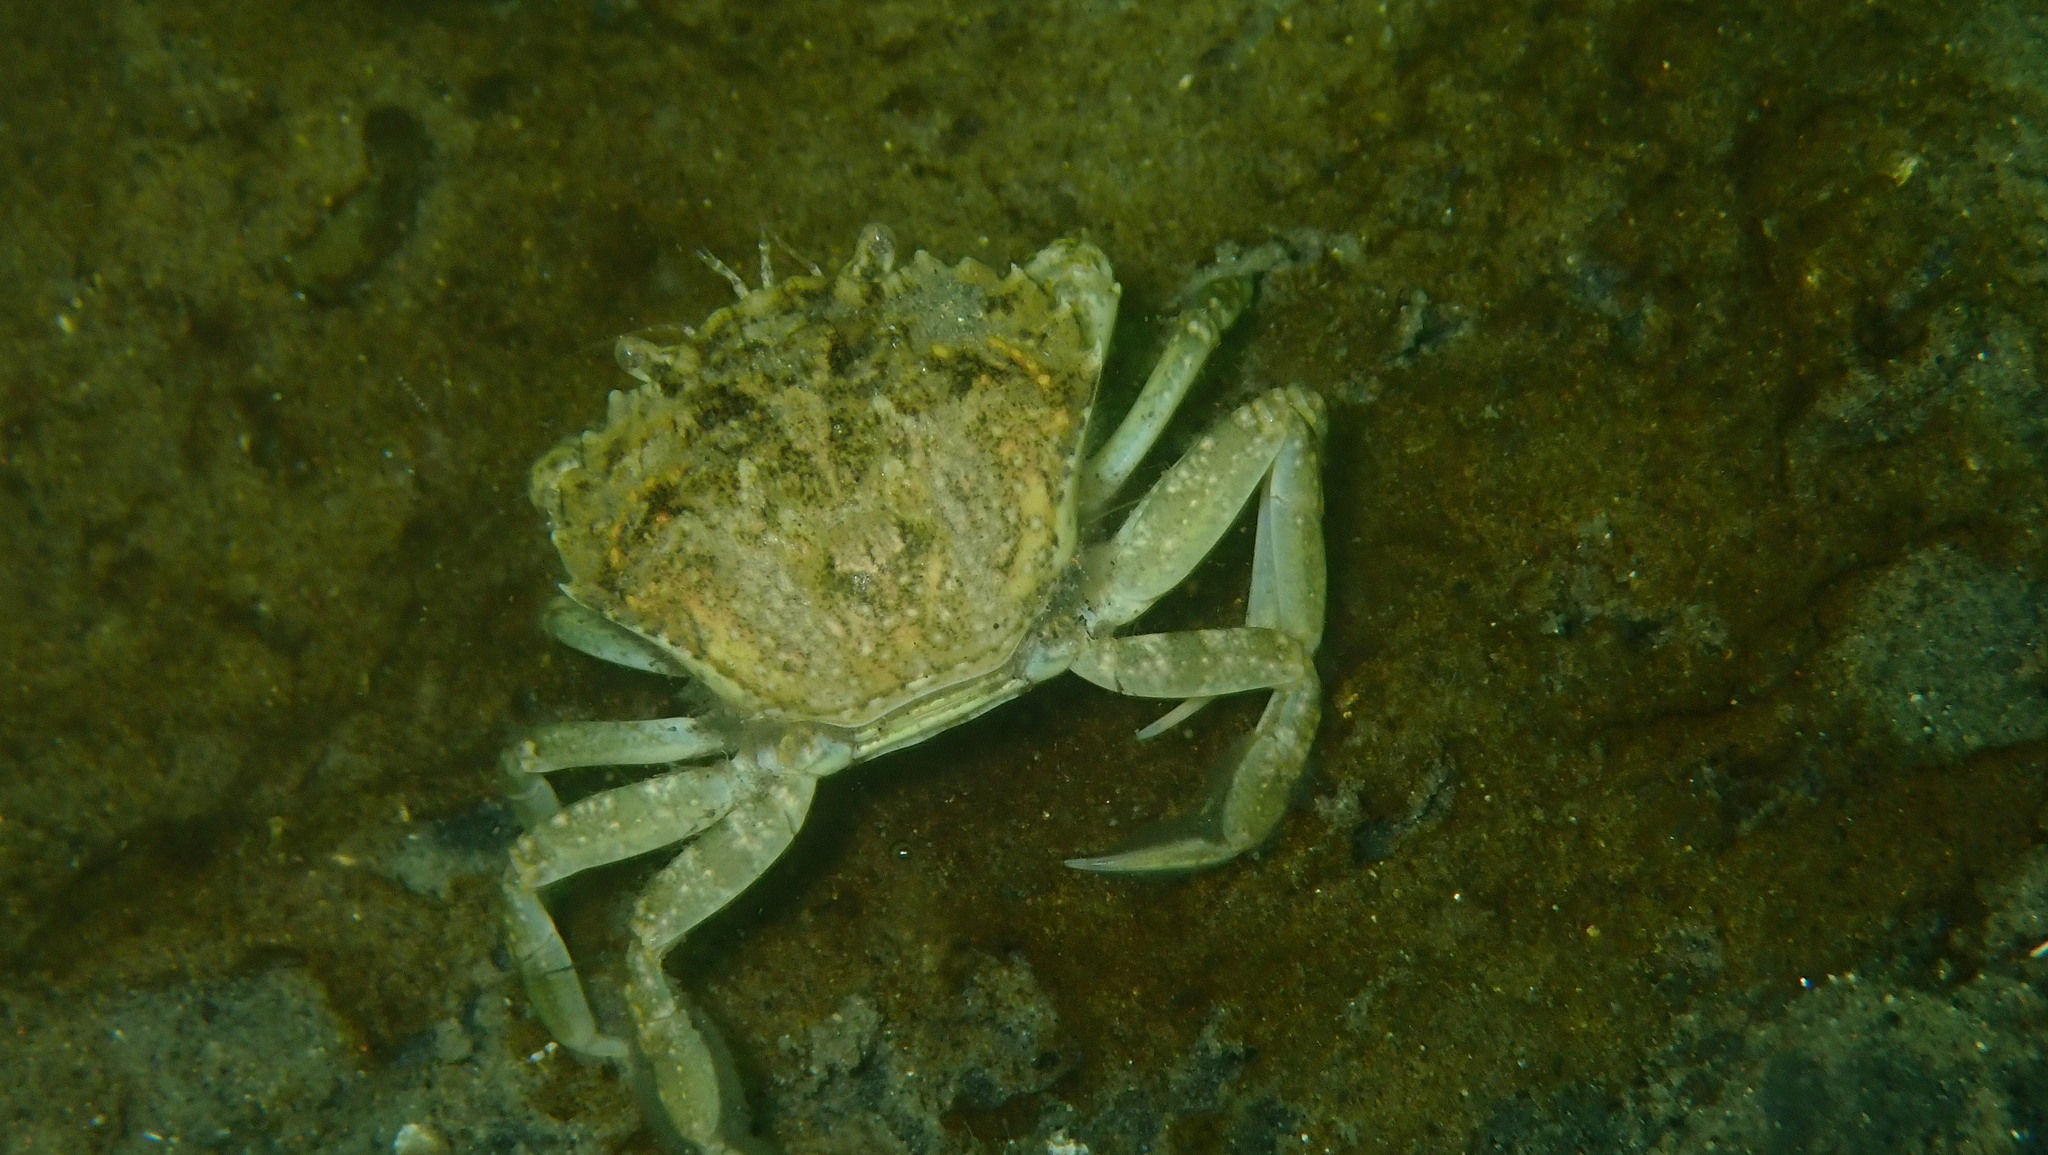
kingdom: Animalia
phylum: Arthropoda
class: Malacostraca
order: Decapoda
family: Carcinidae
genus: Carcinus
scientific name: Carcinus maenas
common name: European green crab
